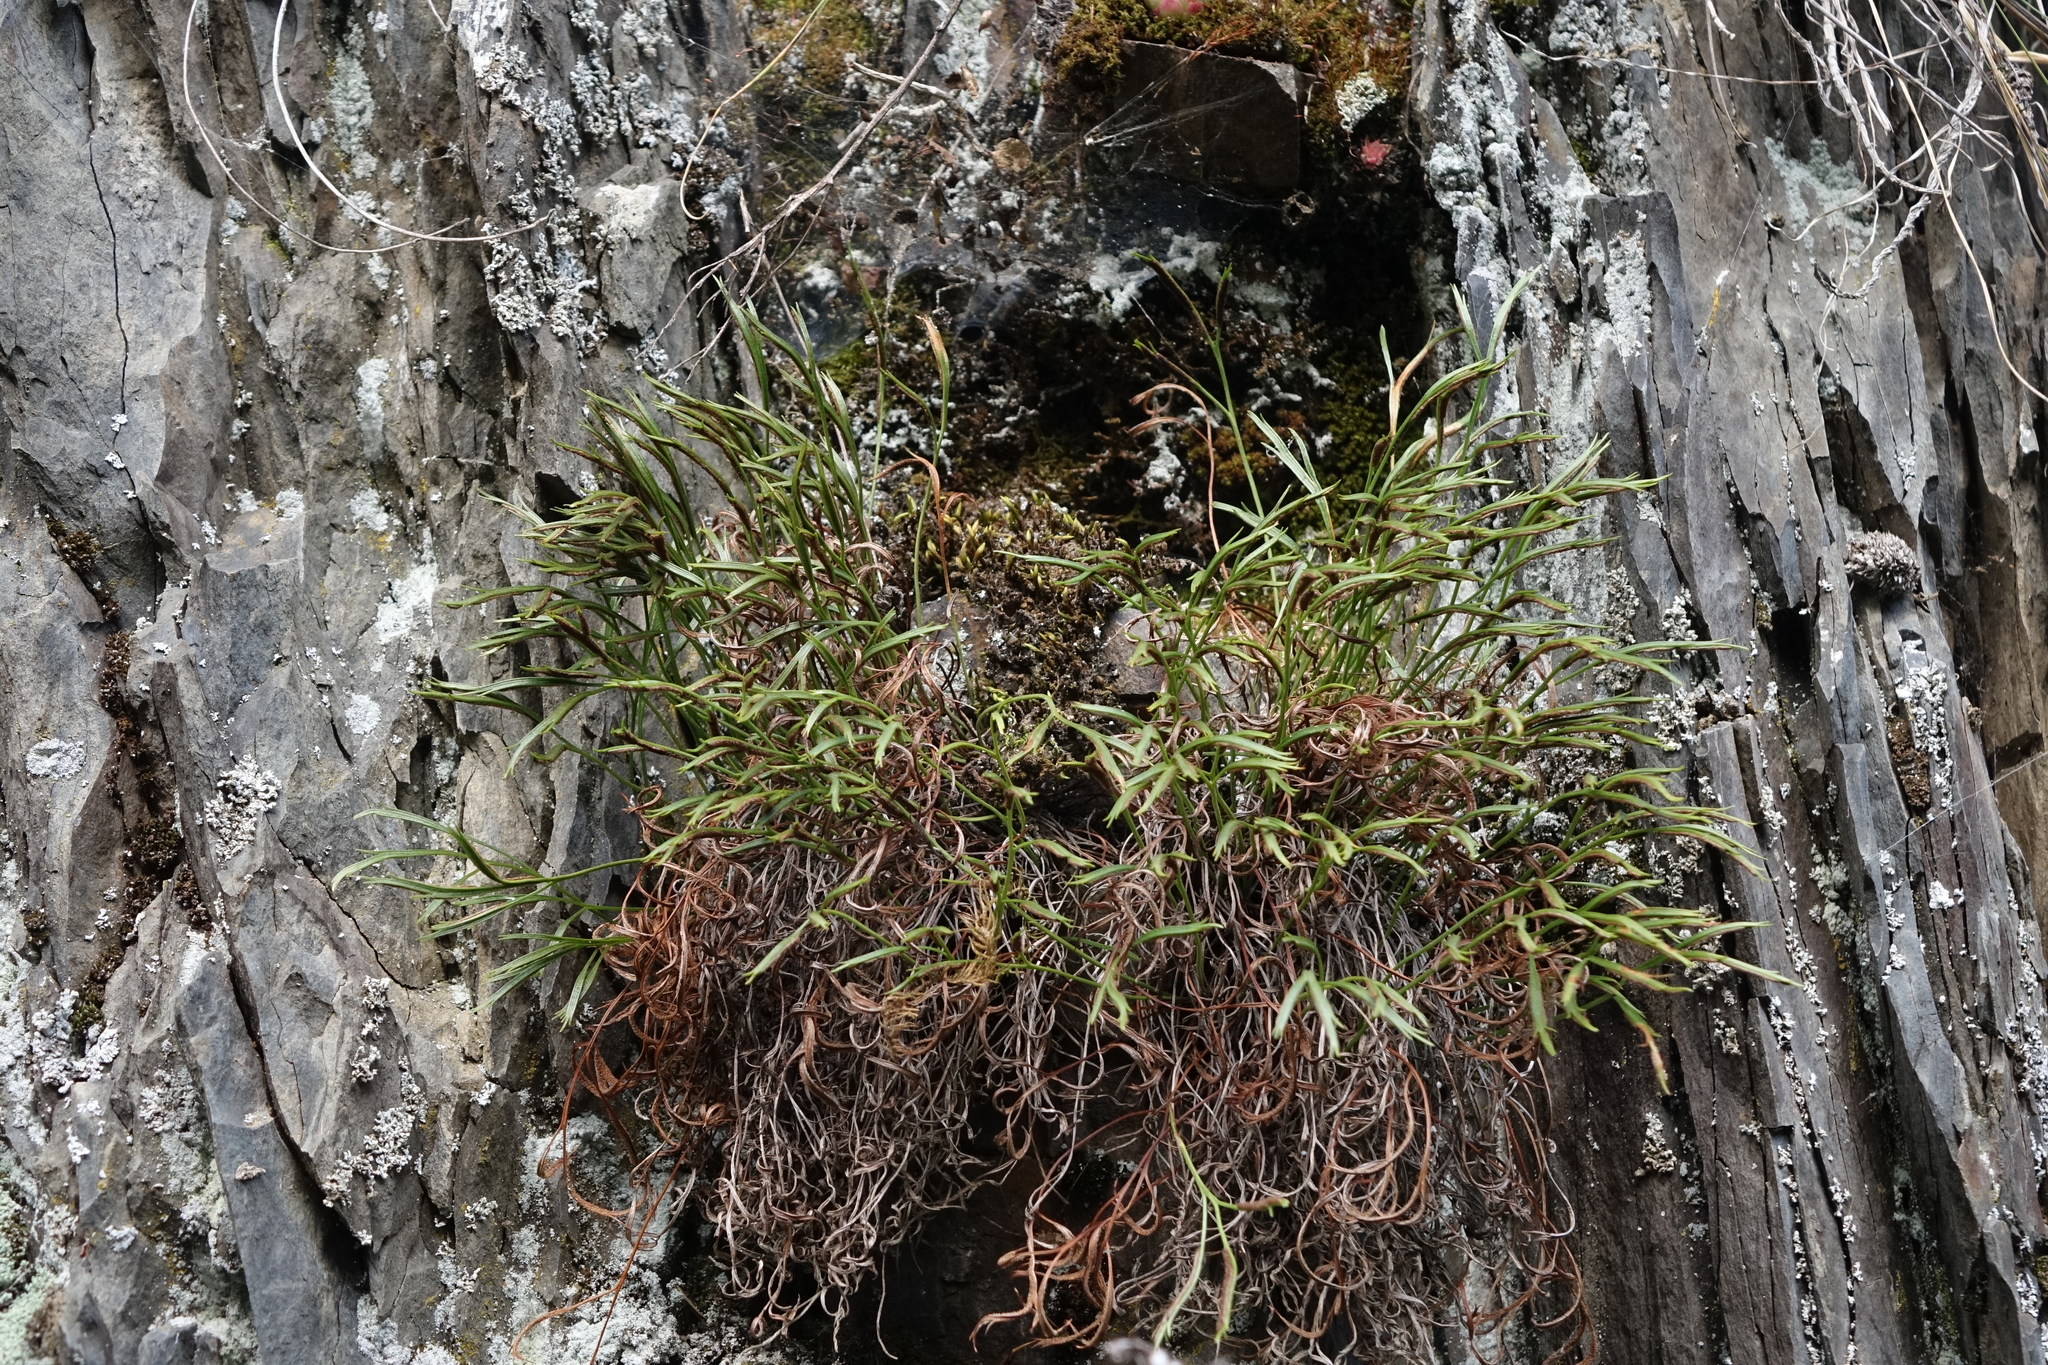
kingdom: Plantae
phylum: Tracheophyta
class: Polypodiopsida
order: Polypodiales
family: Aspleniaceae
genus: Asplenium
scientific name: Asplenium septentrionale
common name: Forked spleenwort
